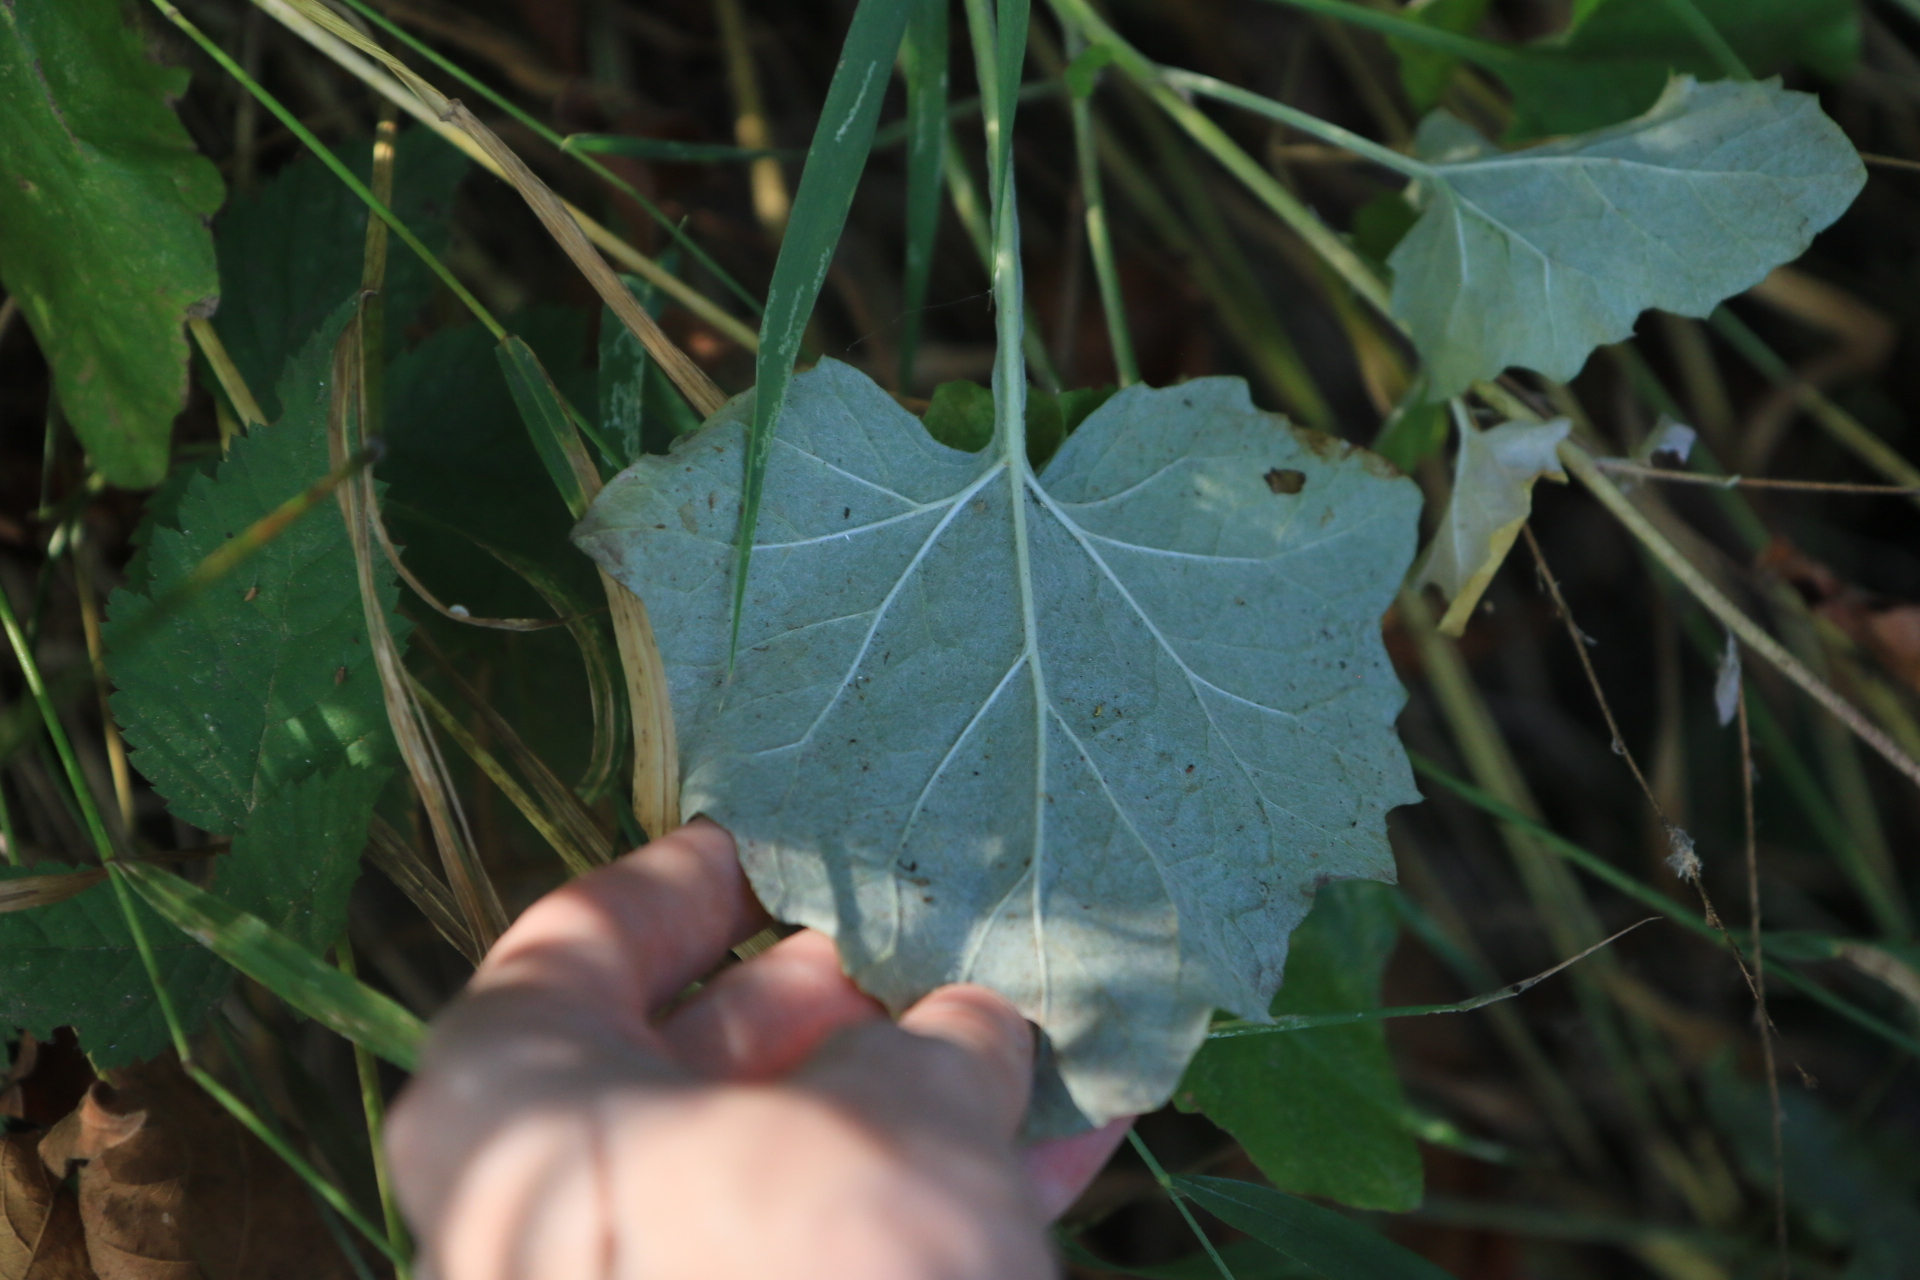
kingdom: Plantae
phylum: Tracheophyta
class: Magnoliopsida
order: Asterales
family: Asteraceae
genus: Adenocaulon
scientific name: Adenocaulon bicolor
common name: Trailplant
